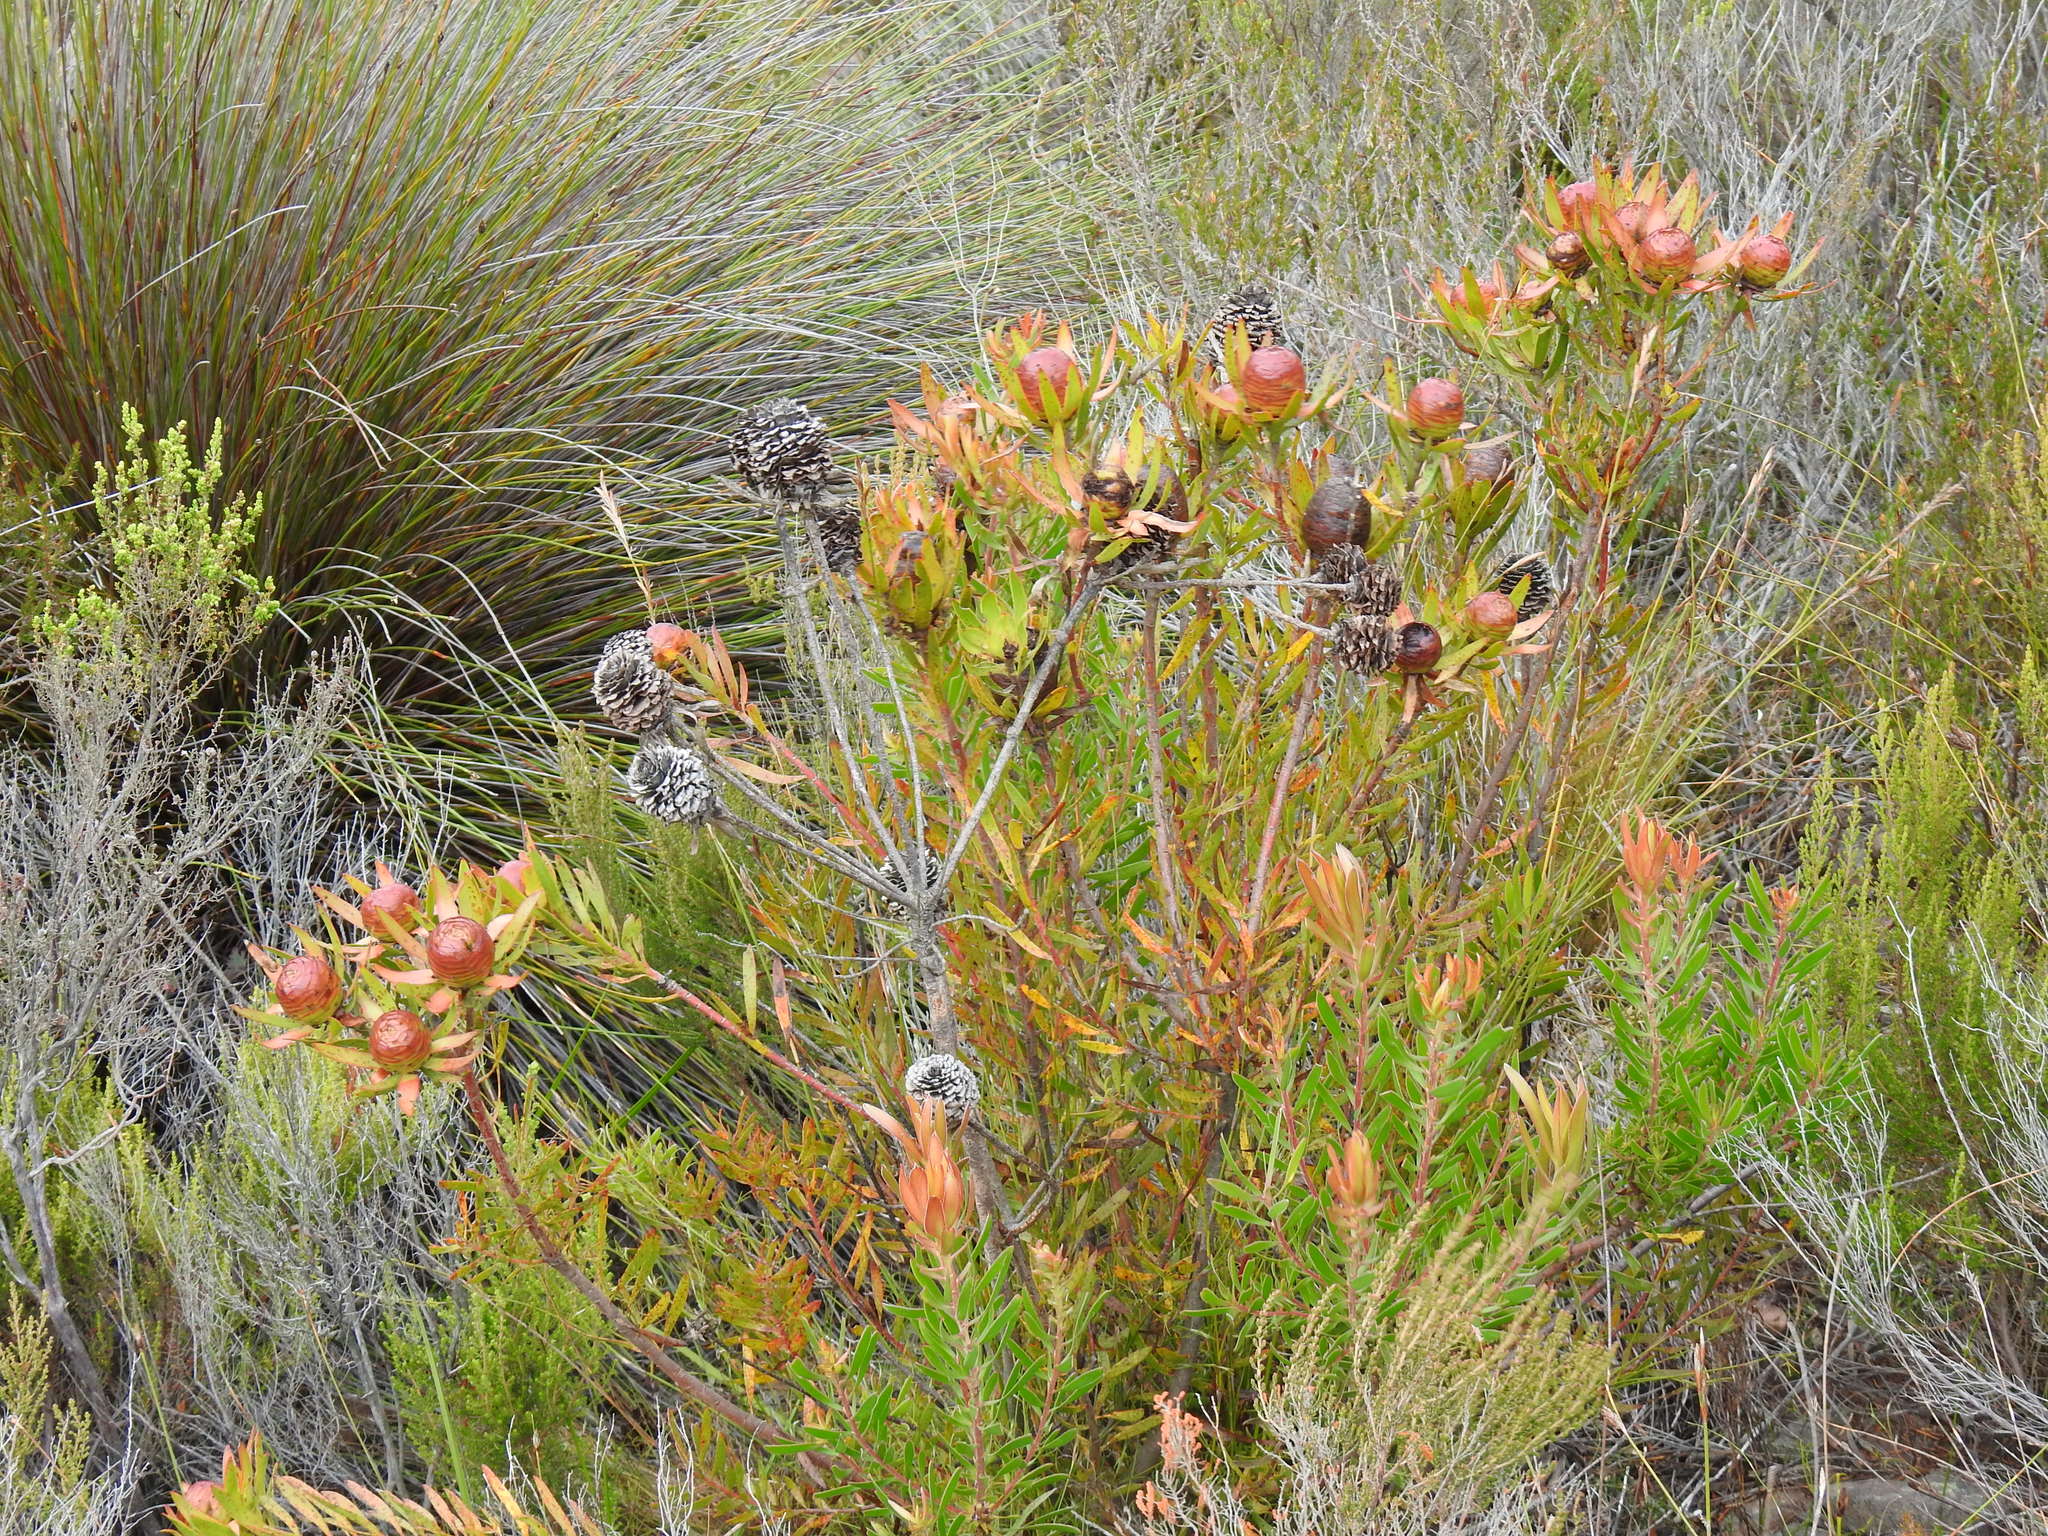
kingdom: Plantae
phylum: Tracheophyta
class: Magnoliopsida
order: Proteales
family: Proteaceae
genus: Leucadendron
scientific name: Leucadendron spissifolium
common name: Spear-leaf conebush
